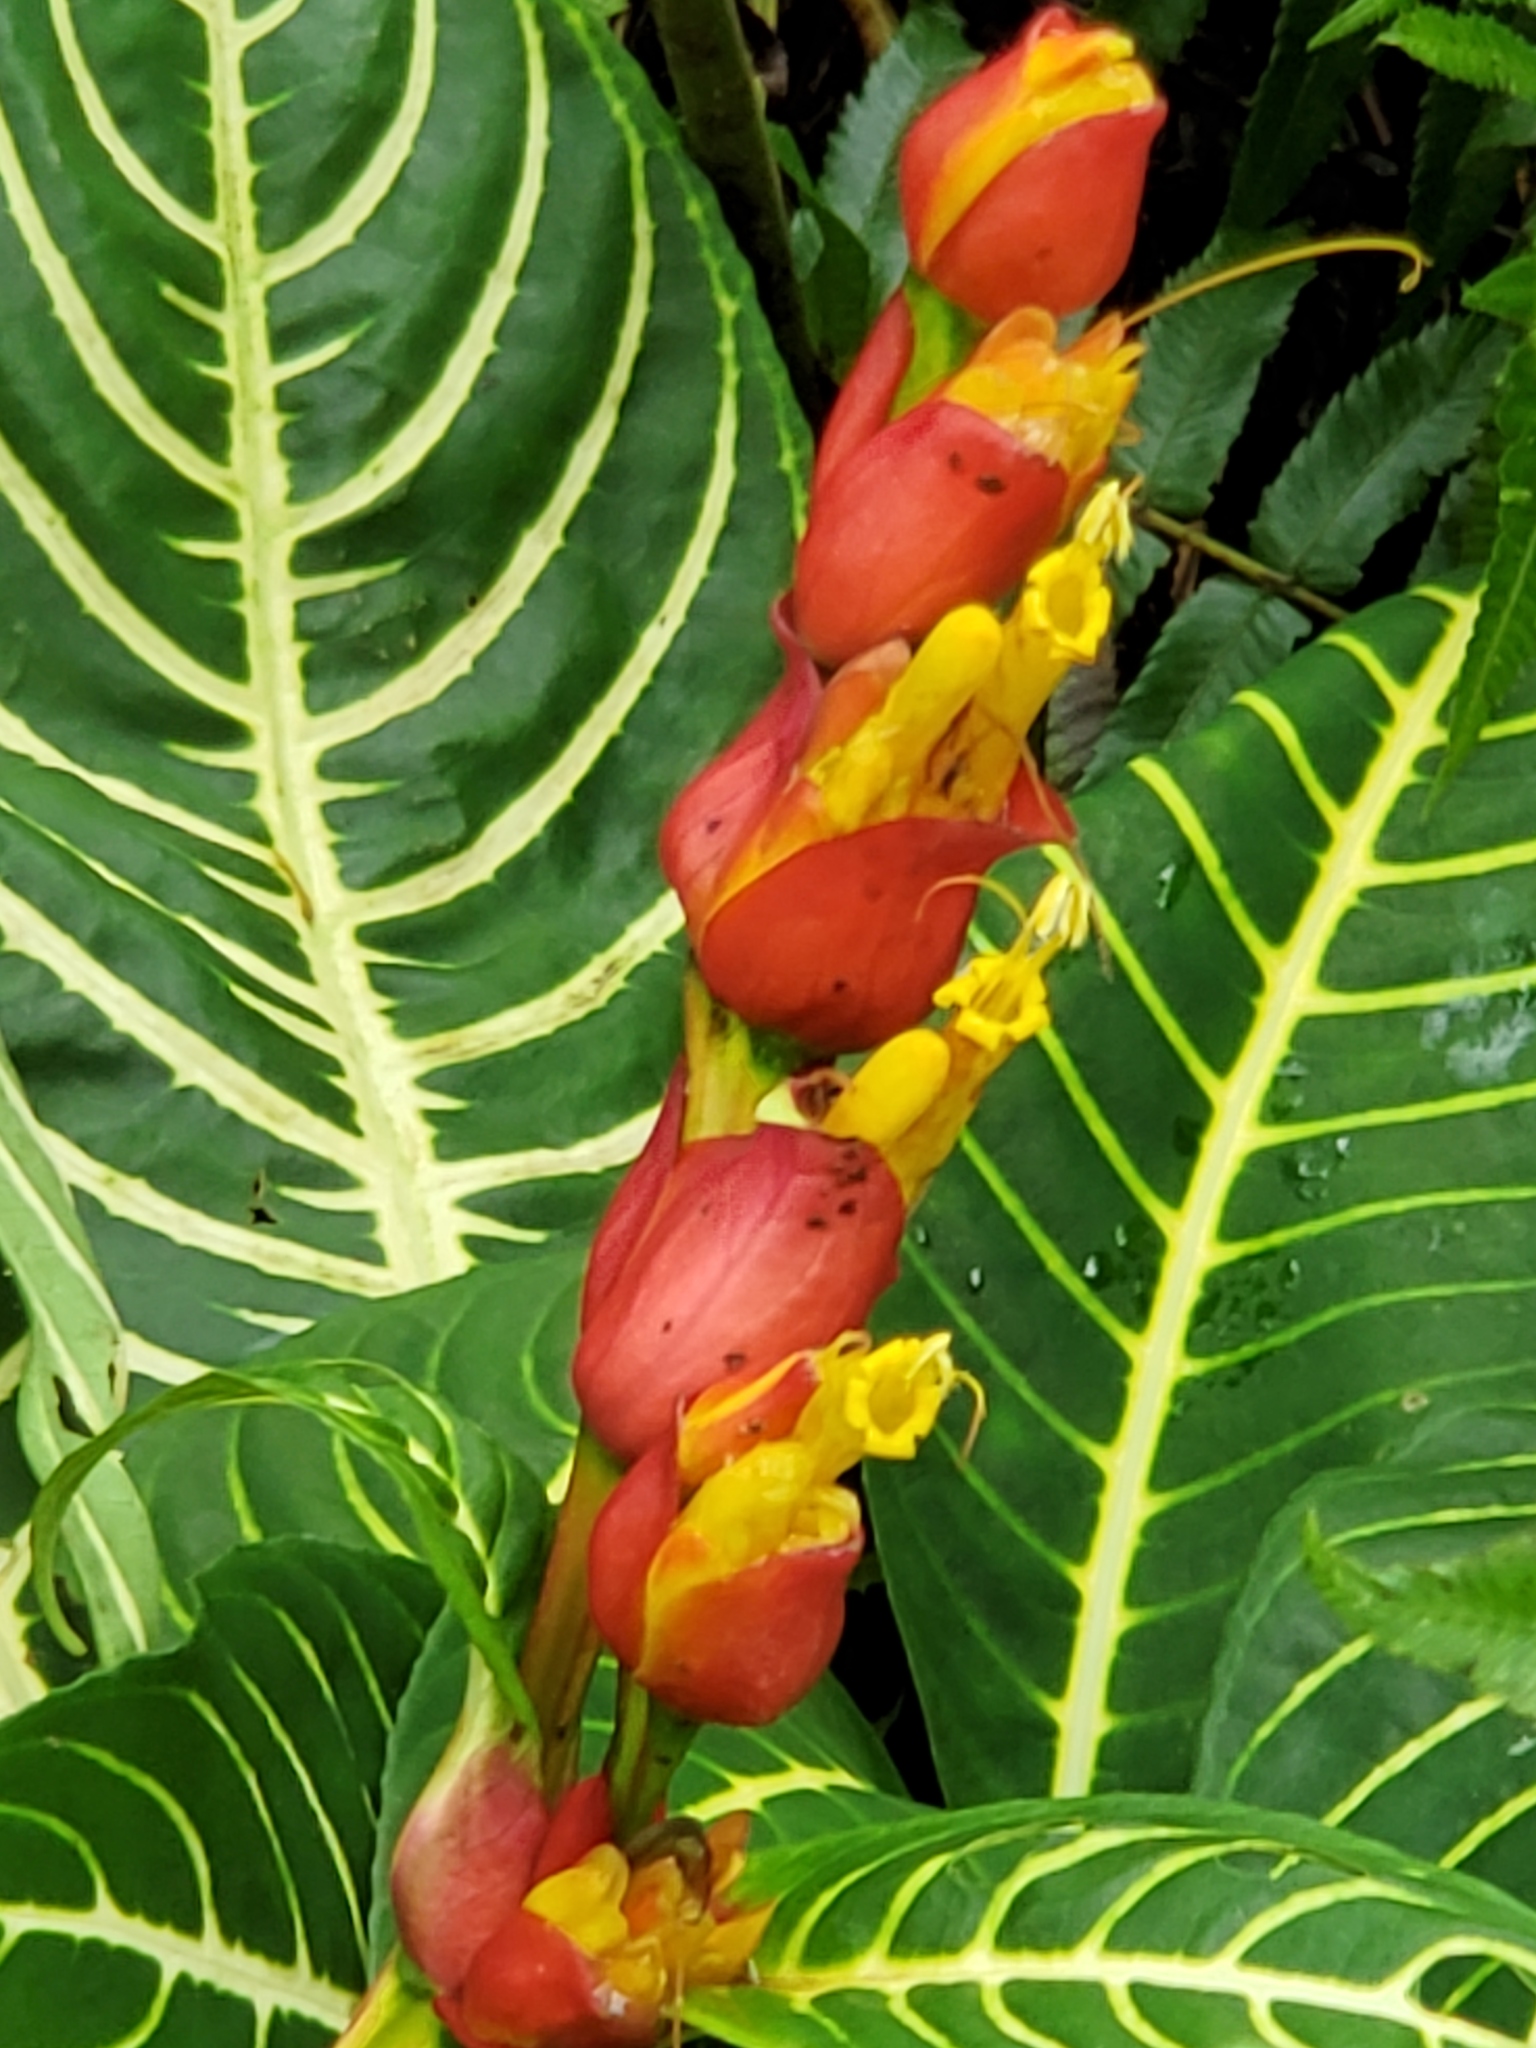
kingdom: Plantae
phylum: Tracheophyta
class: Magnoliopsida
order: Lamiales
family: Acanthaceae
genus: Sanchezia
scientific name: Sanchezia oblonga
